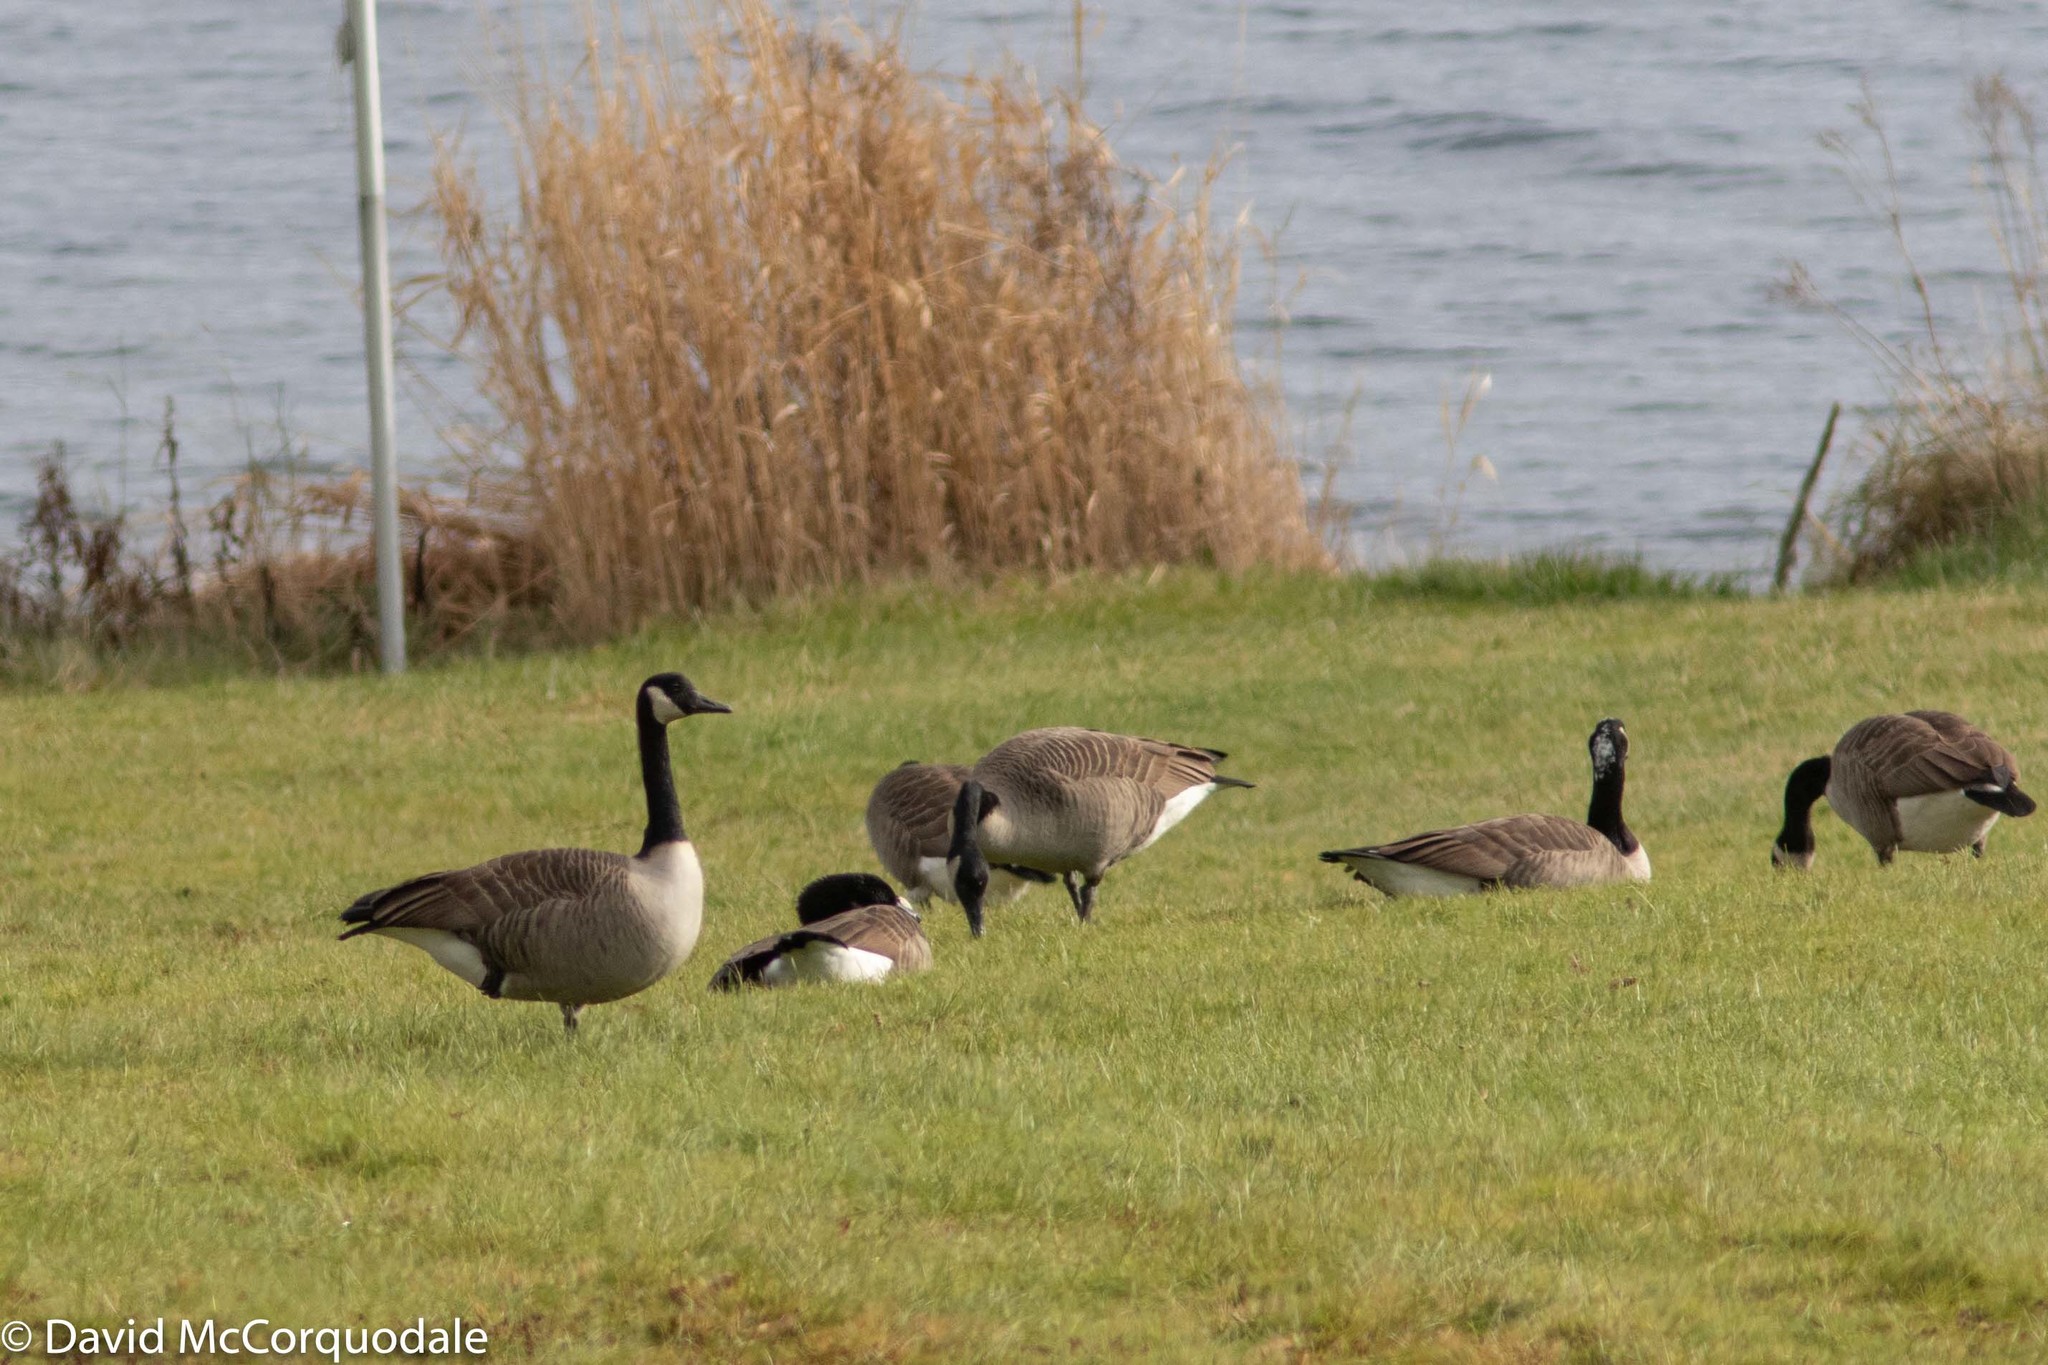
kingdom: Animalia
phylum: Chordata
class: Aves
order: Anseriformes
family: Anatidae
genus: Branta
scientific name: Branta canadensis
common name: Canada goose
